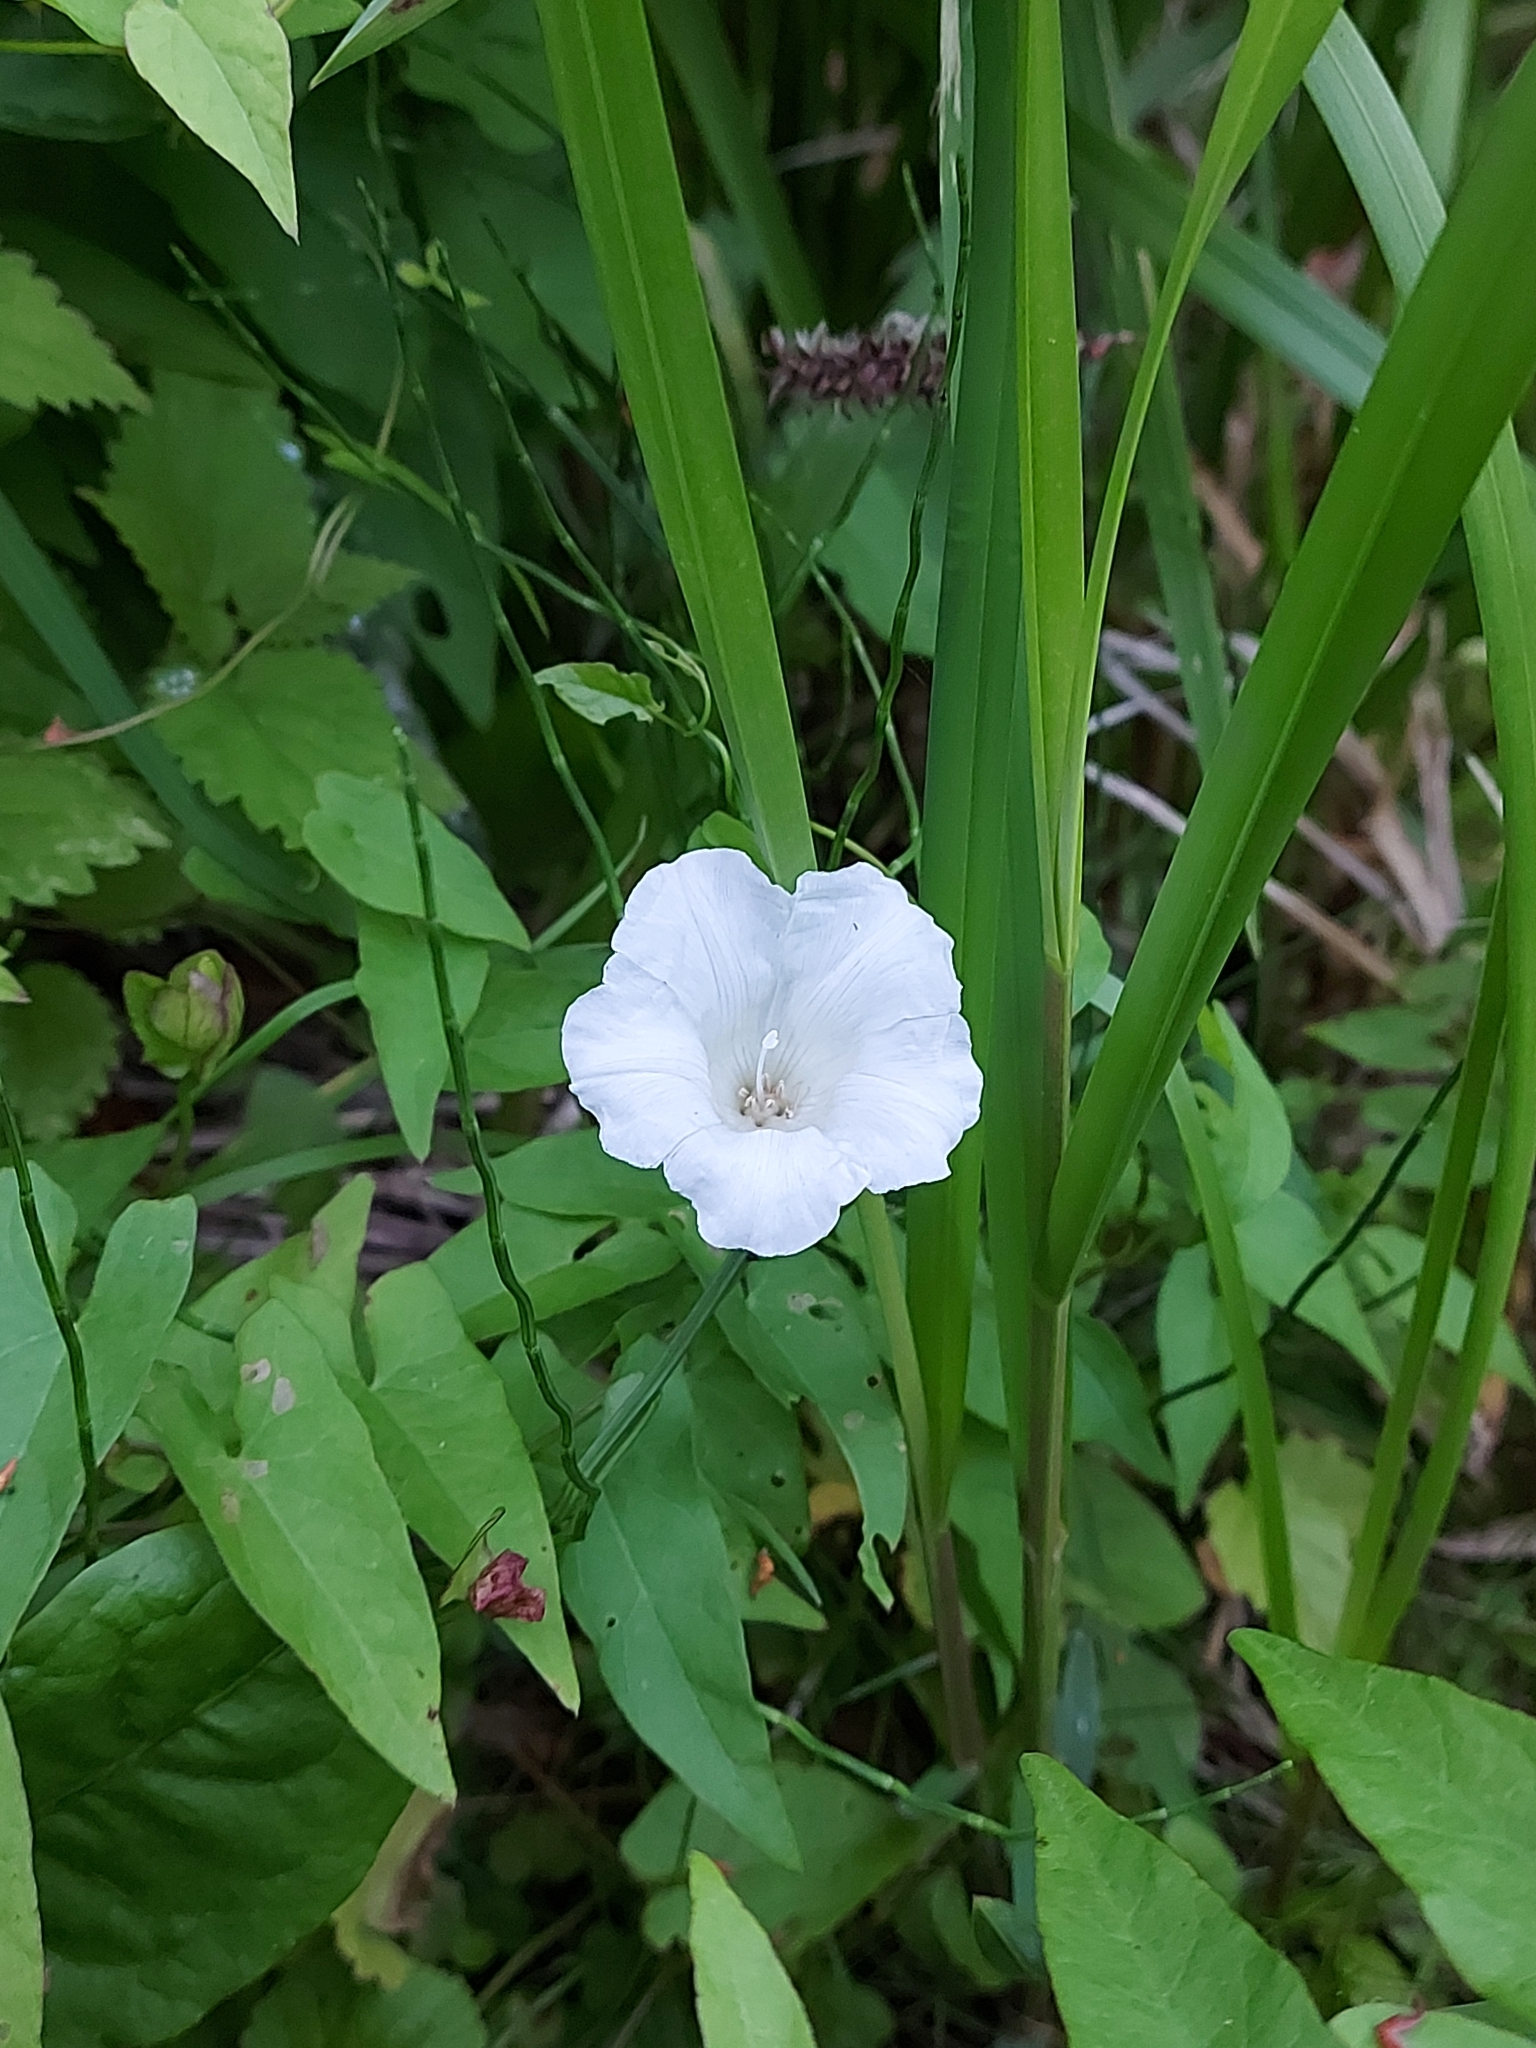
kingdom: Plantae
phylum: Tracheophyta
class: Magnoliopsida
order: Solanales
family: Convolvulaceae
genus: Calystegia
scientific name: Calystegia sepium
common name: Hedge bindweed
